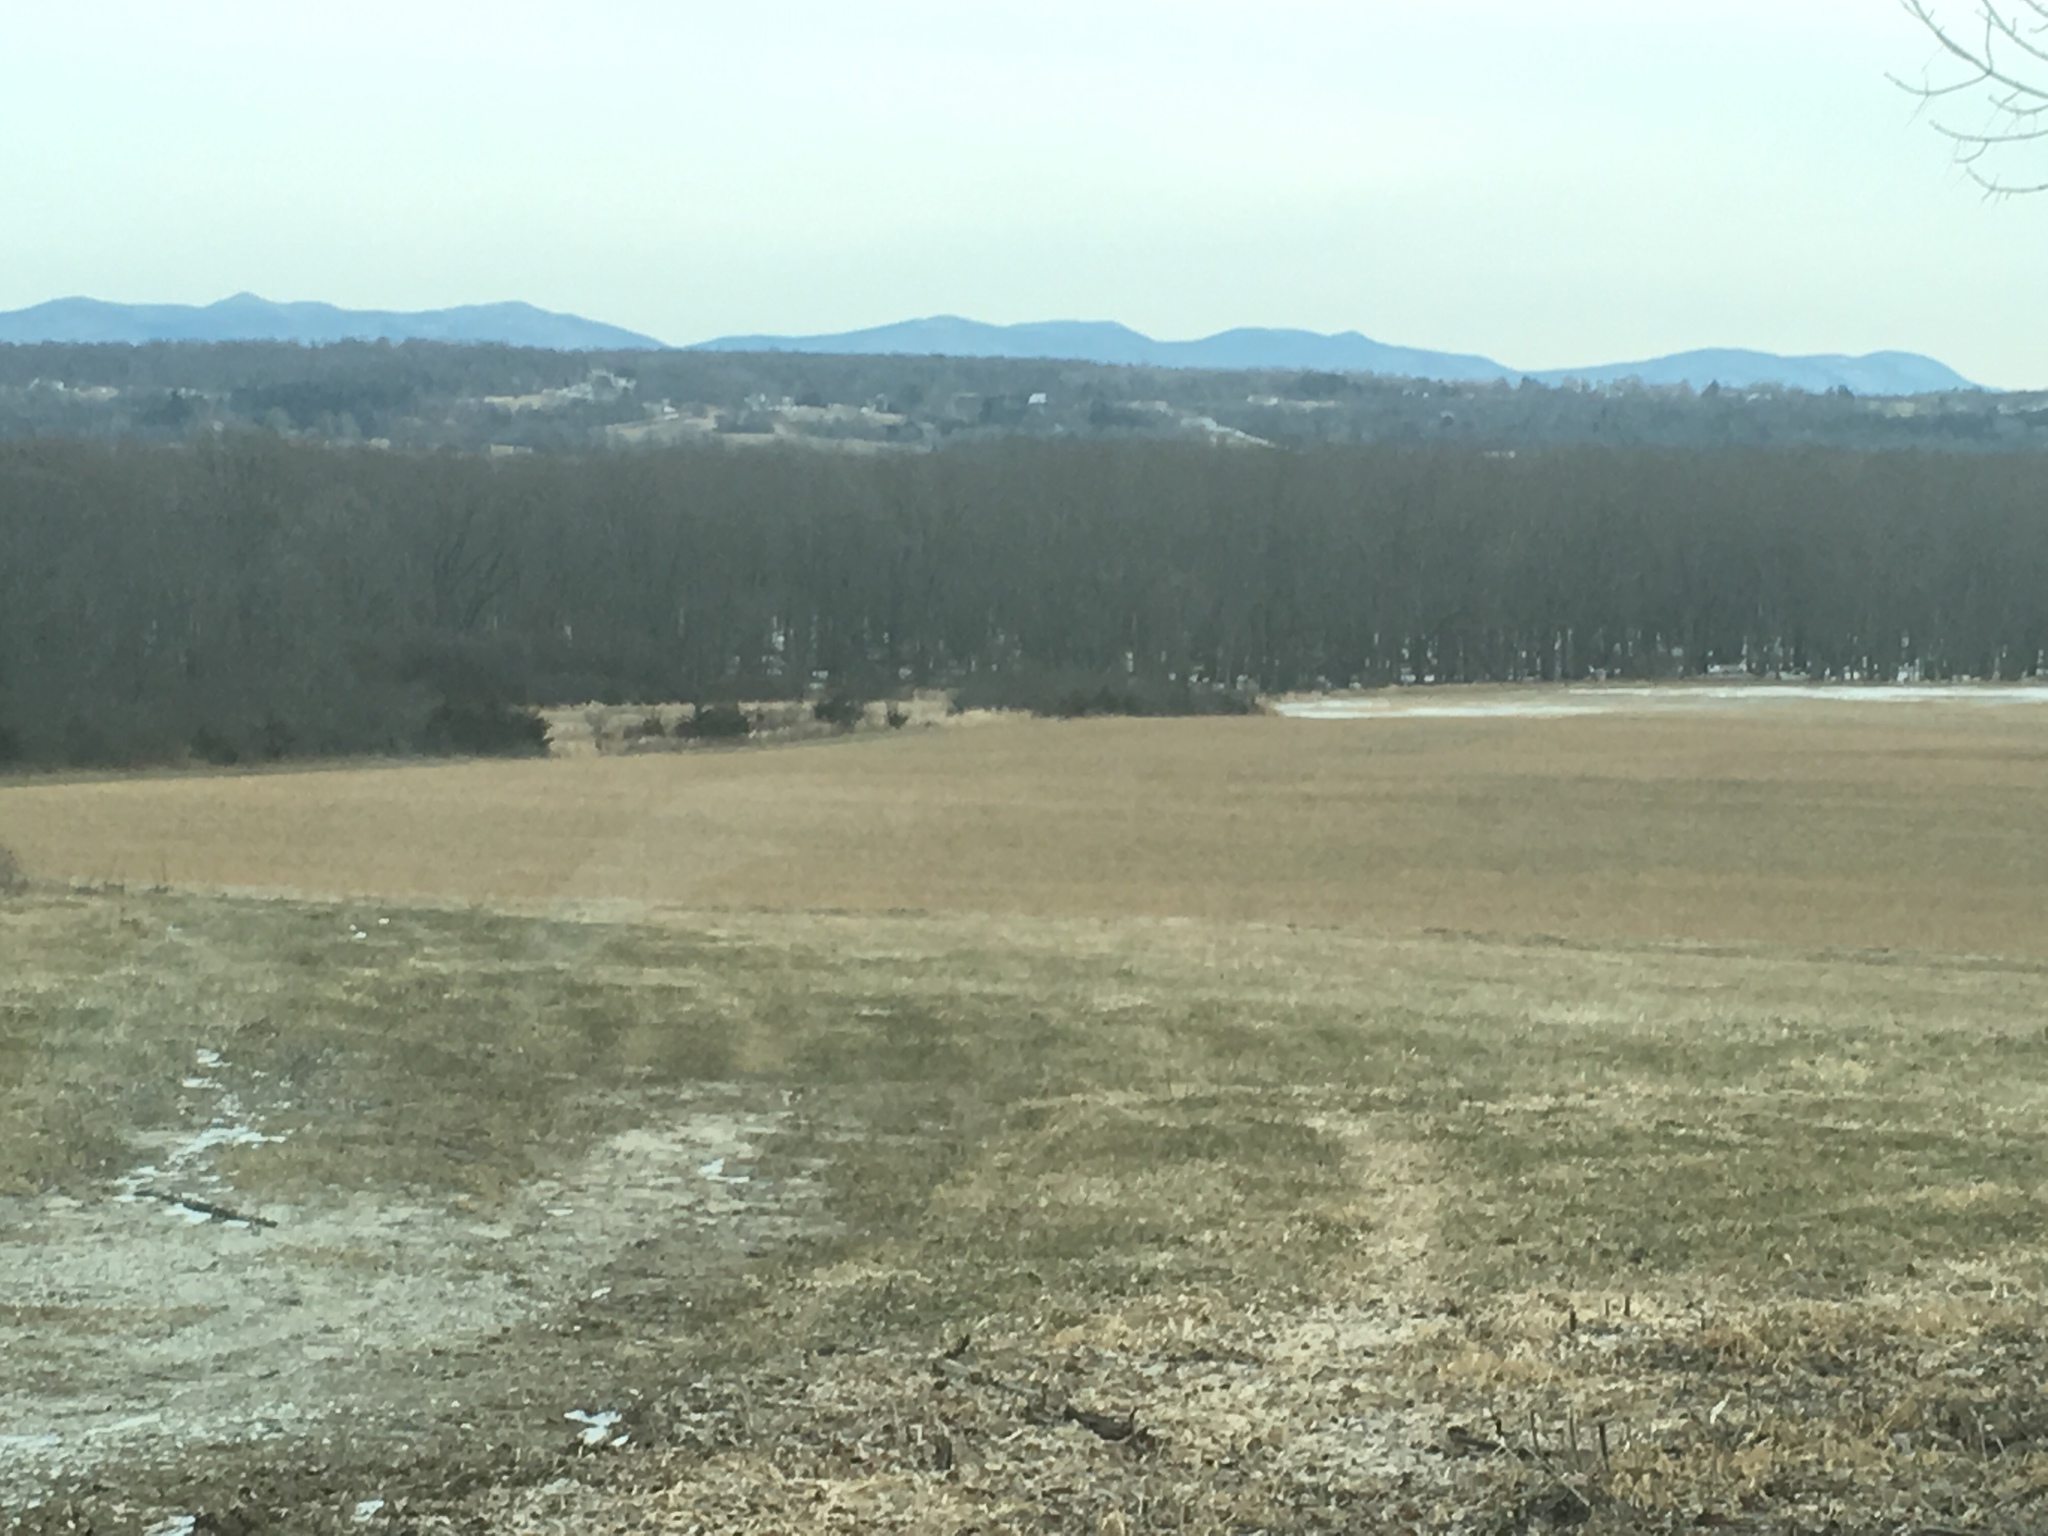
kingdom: Plantae
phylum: Tracheophyta
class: Magnoliopsida
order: Sapindales
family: Sapindaceae
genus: Acer
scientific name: Acer saccharinum
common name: Silver maple
